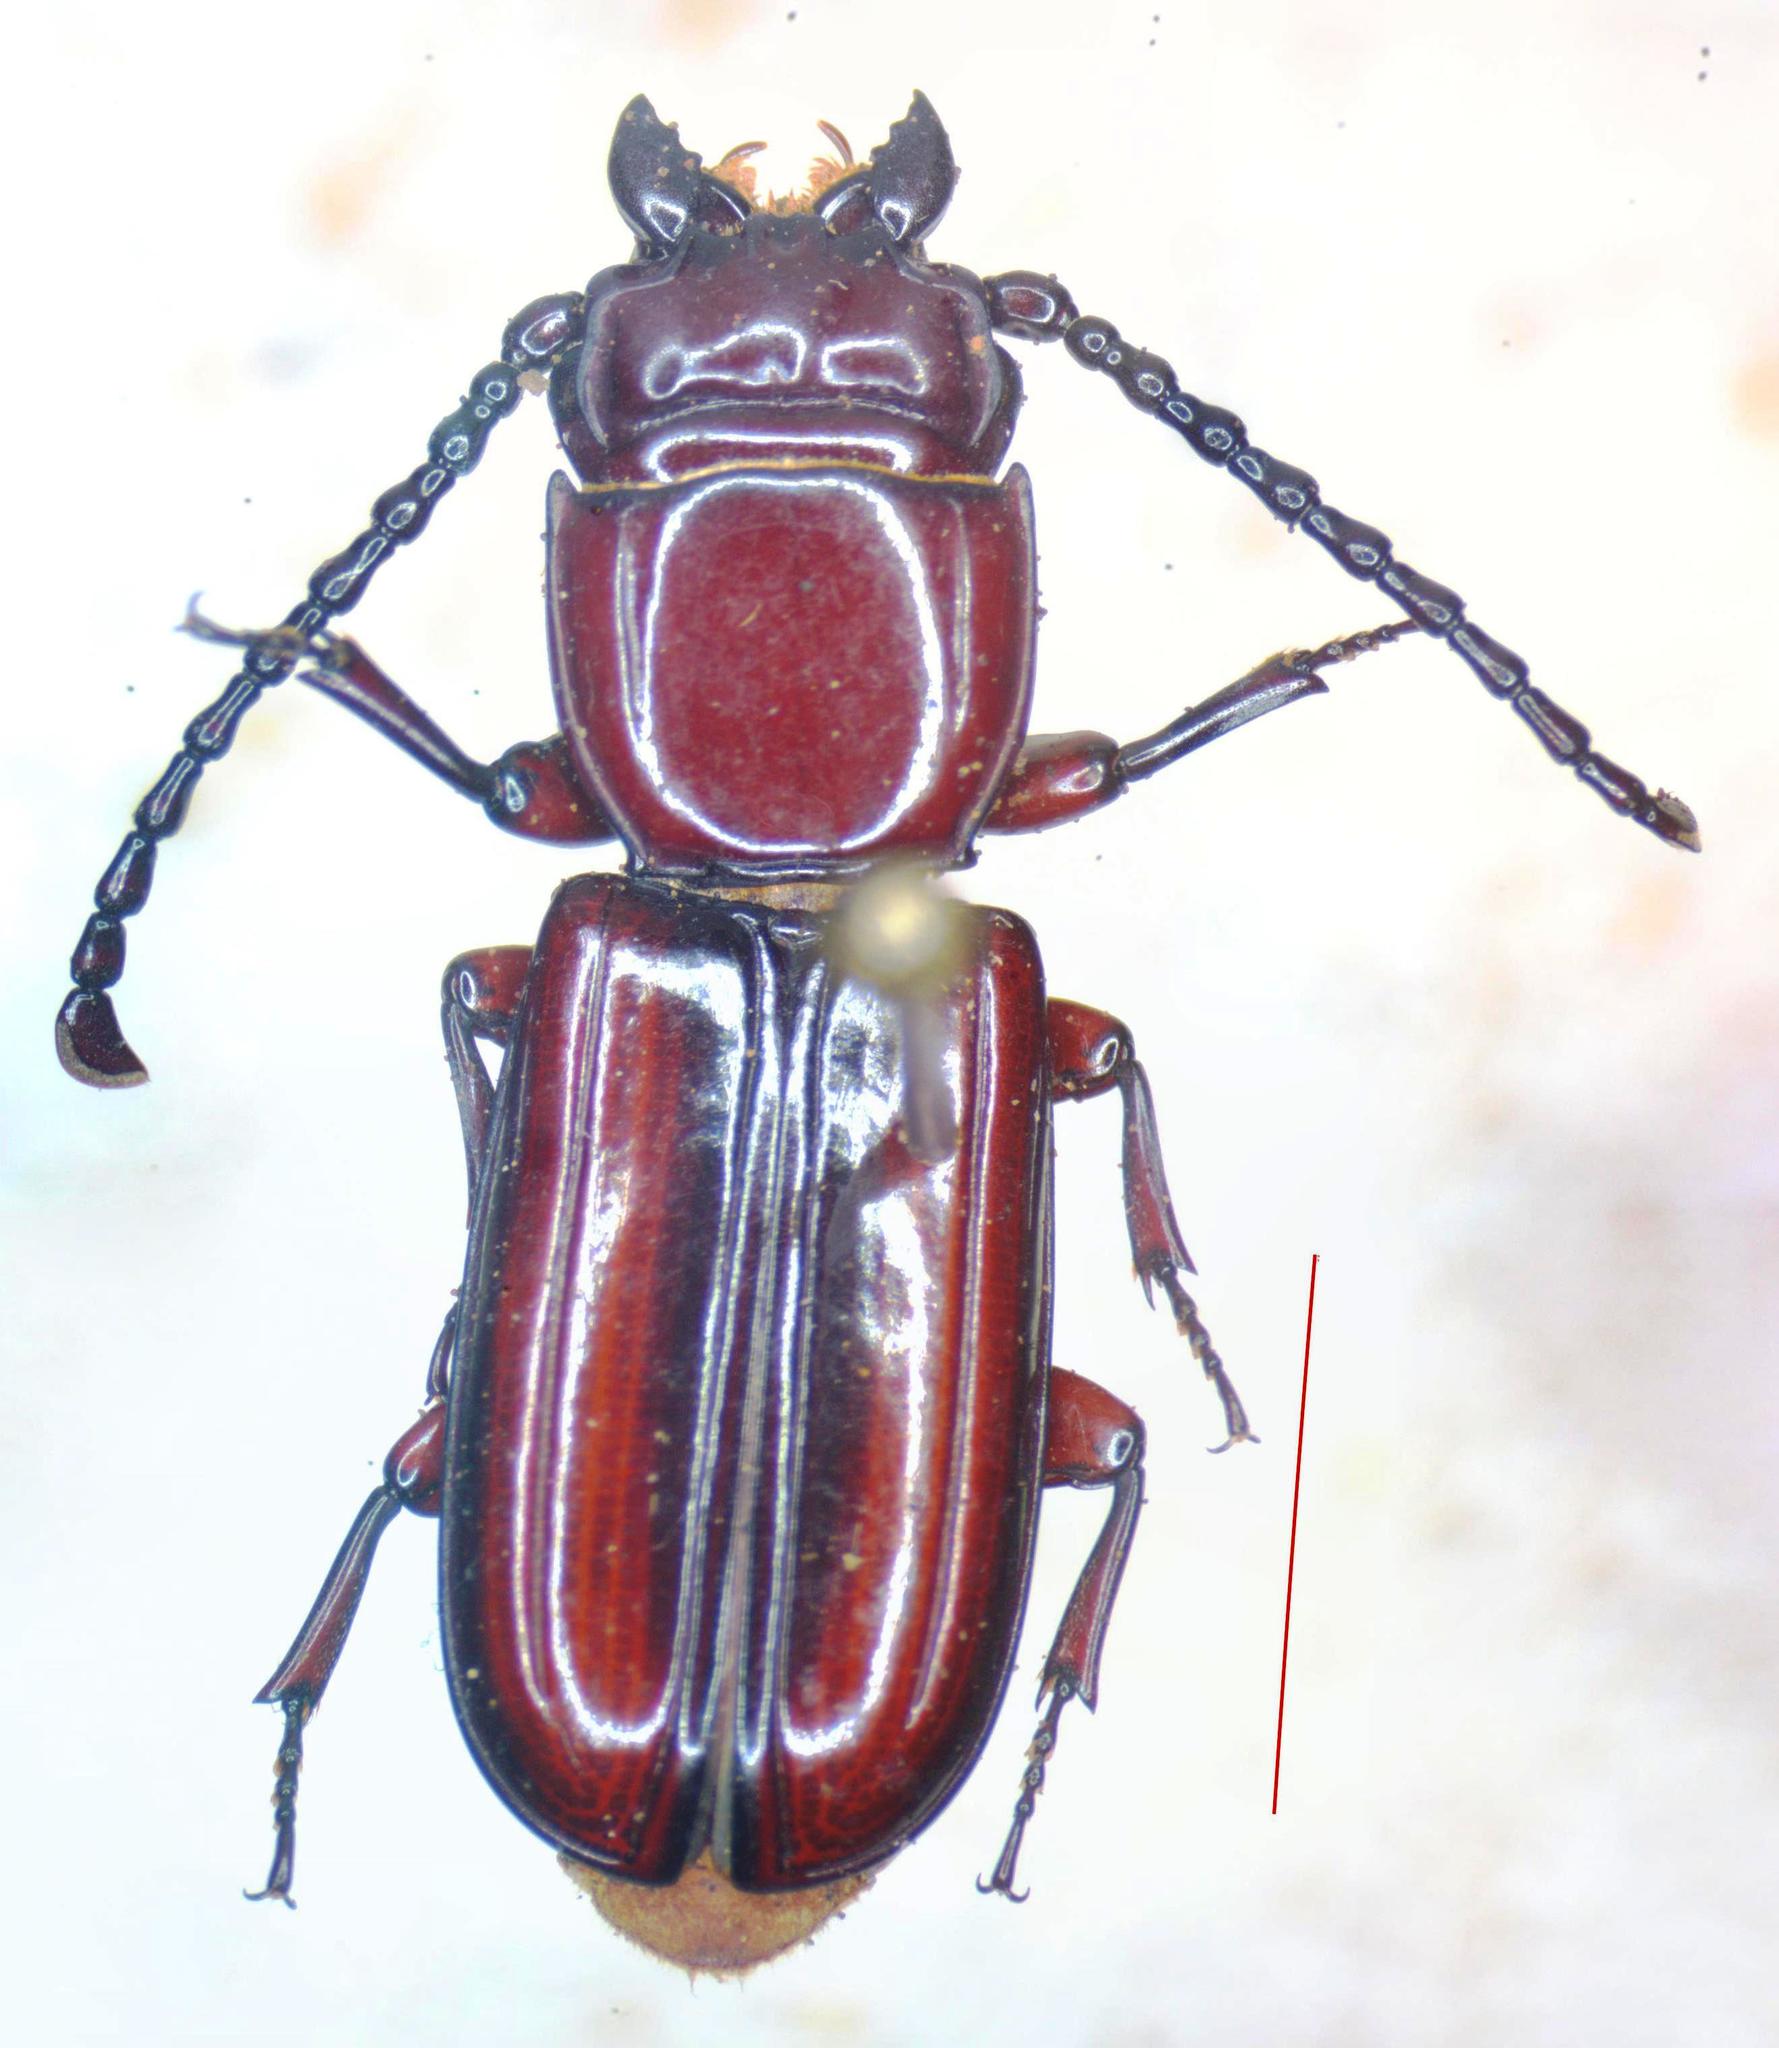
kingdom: Animalia
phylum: Arthropoda
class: Insecta
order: Coleoptera
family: Passandridae
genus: Passandra
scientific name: Passandra fasciata
